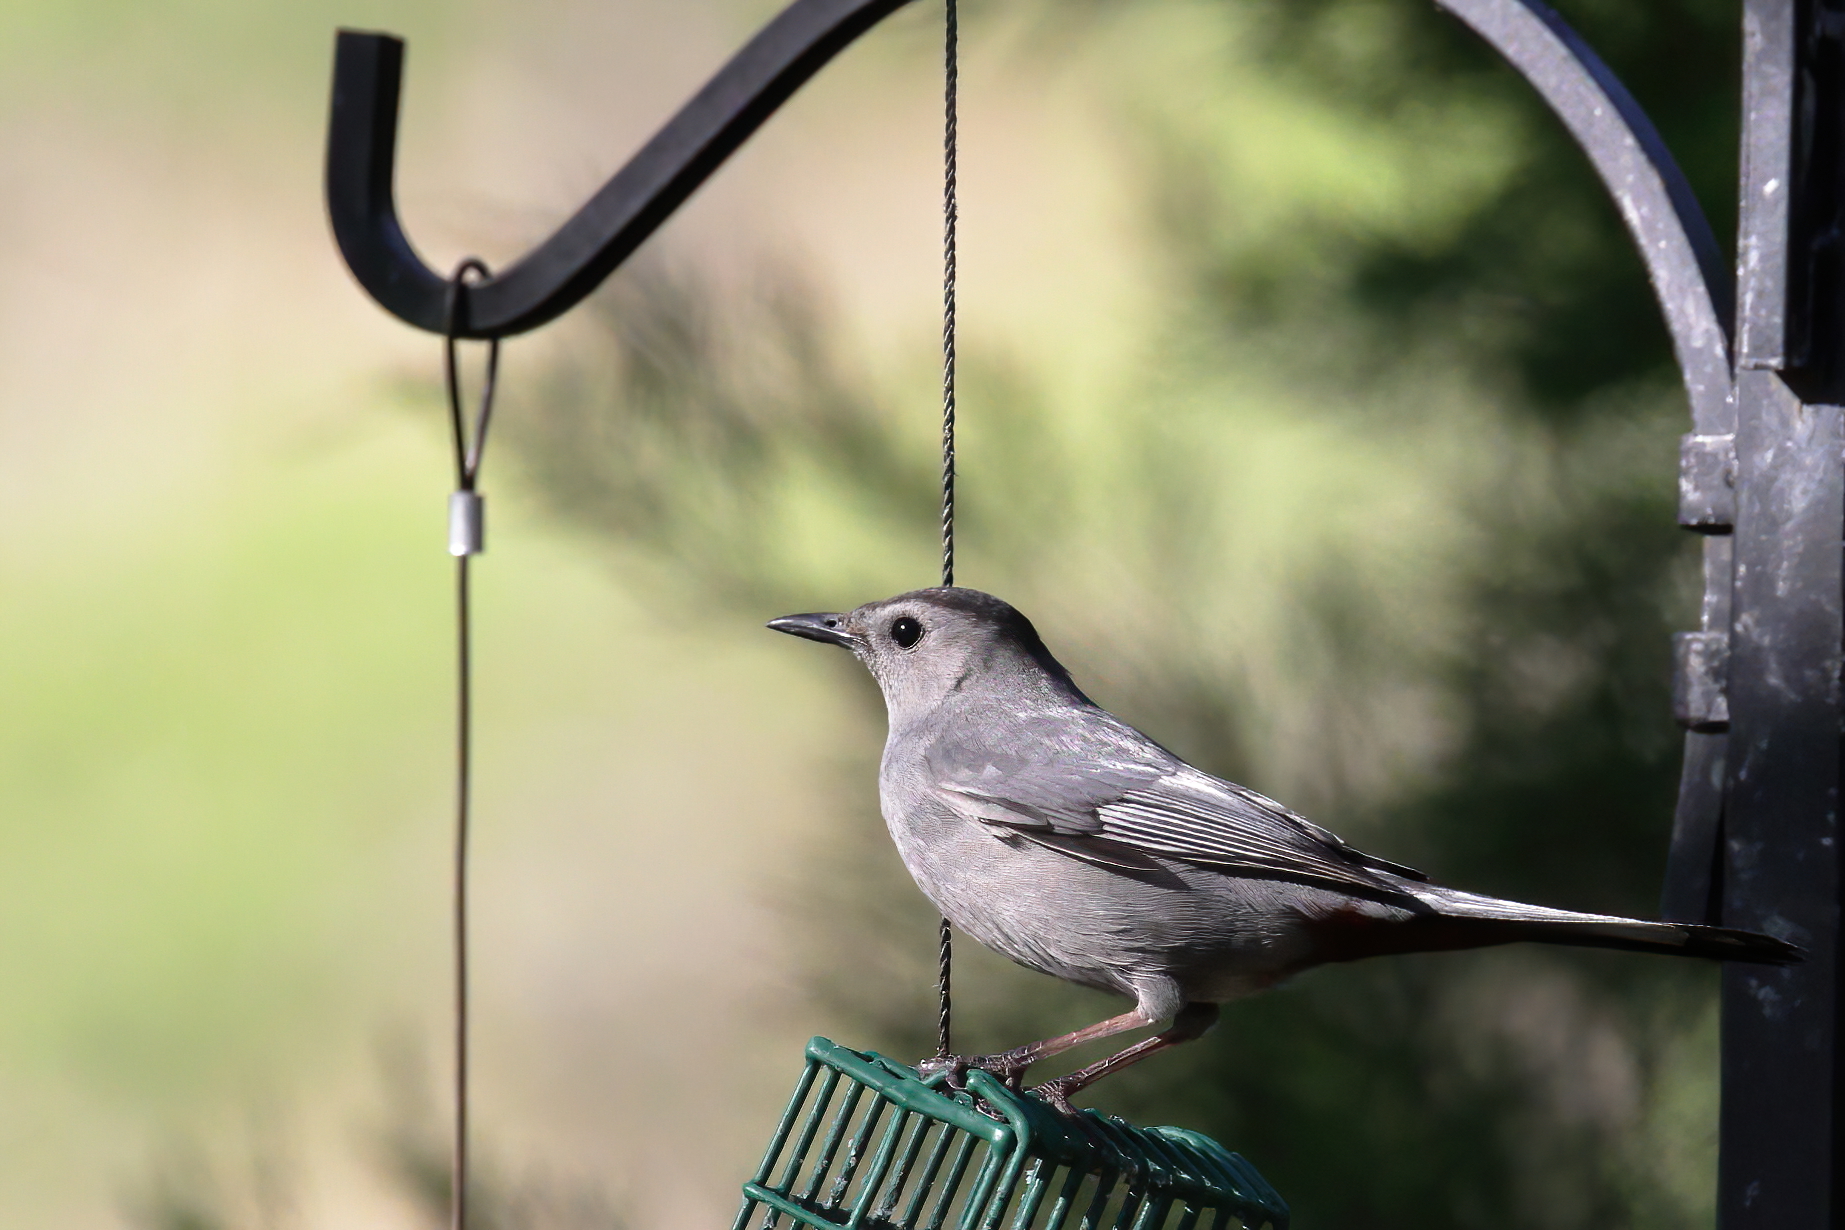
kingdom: Animalia
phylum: Chordata
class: Aves
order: Passeriformes
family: Mimidae
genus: Dumetella
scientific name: Dumetella carolinensis
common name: Gray catbird
